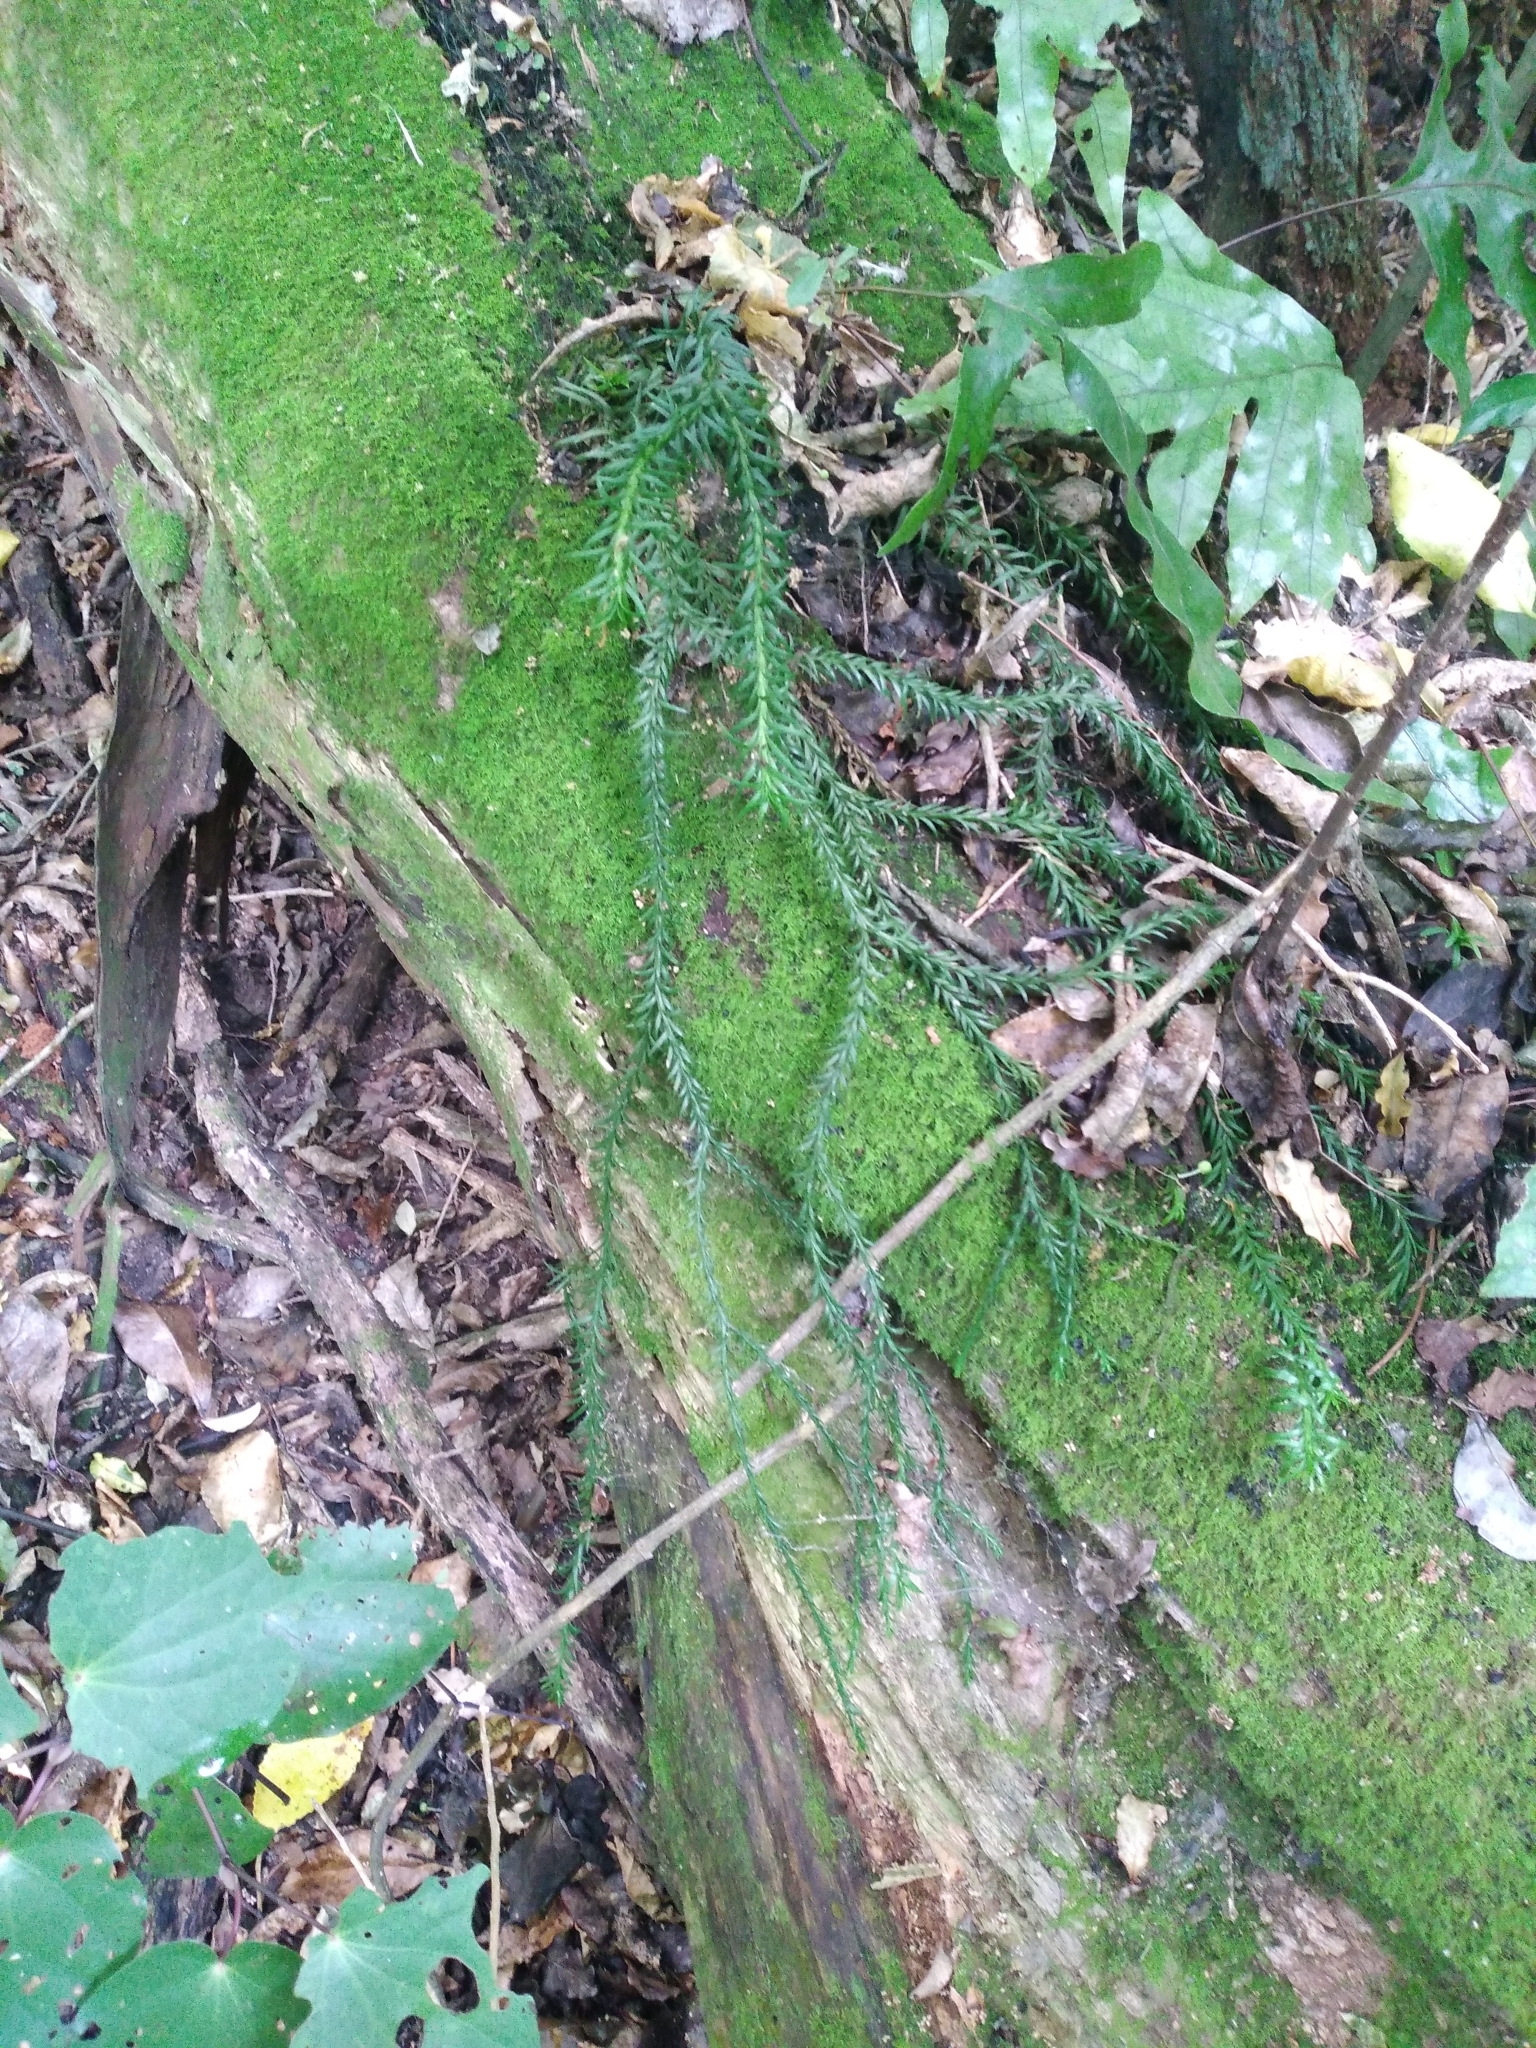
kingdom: Plantae
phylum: Tracheophyta
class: Lycopodiopsida
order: Lycopodiales
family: Lycopodiaceae
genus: Phlegmariurus
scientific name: Phlegmariurus billardierei
